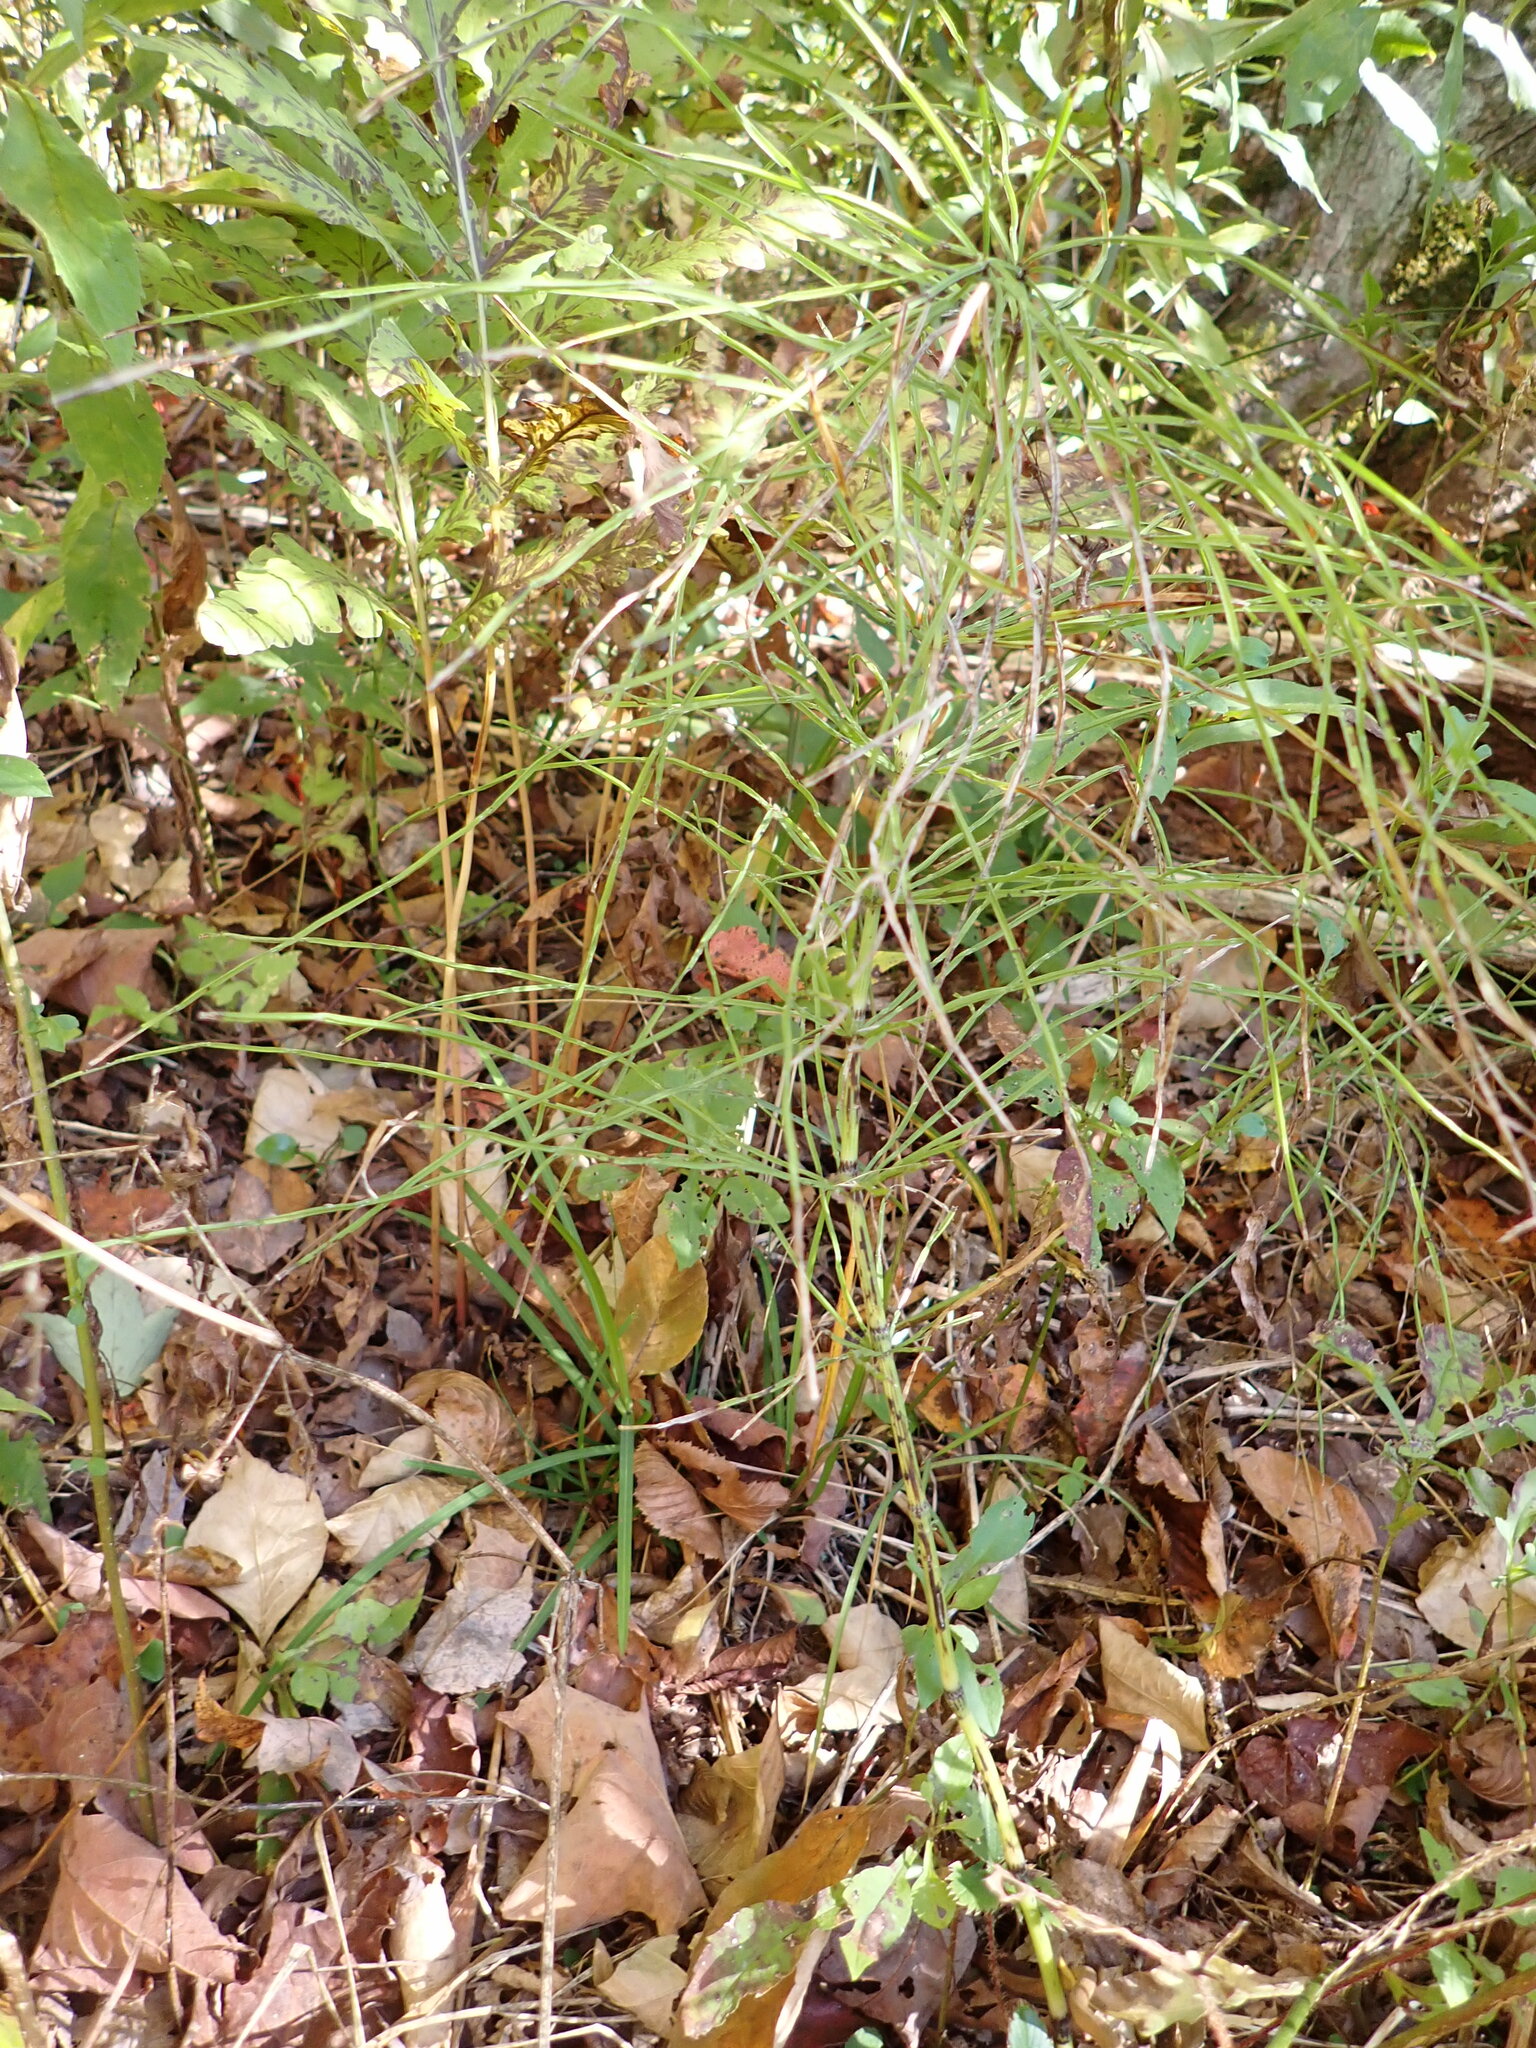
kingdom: Plantae
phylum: Tracheophyta
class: Polypodiopsida
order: Equisetales
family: Equisetaceae
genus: Equisetum
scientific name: Equisetum arvense
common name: Field horsetail
